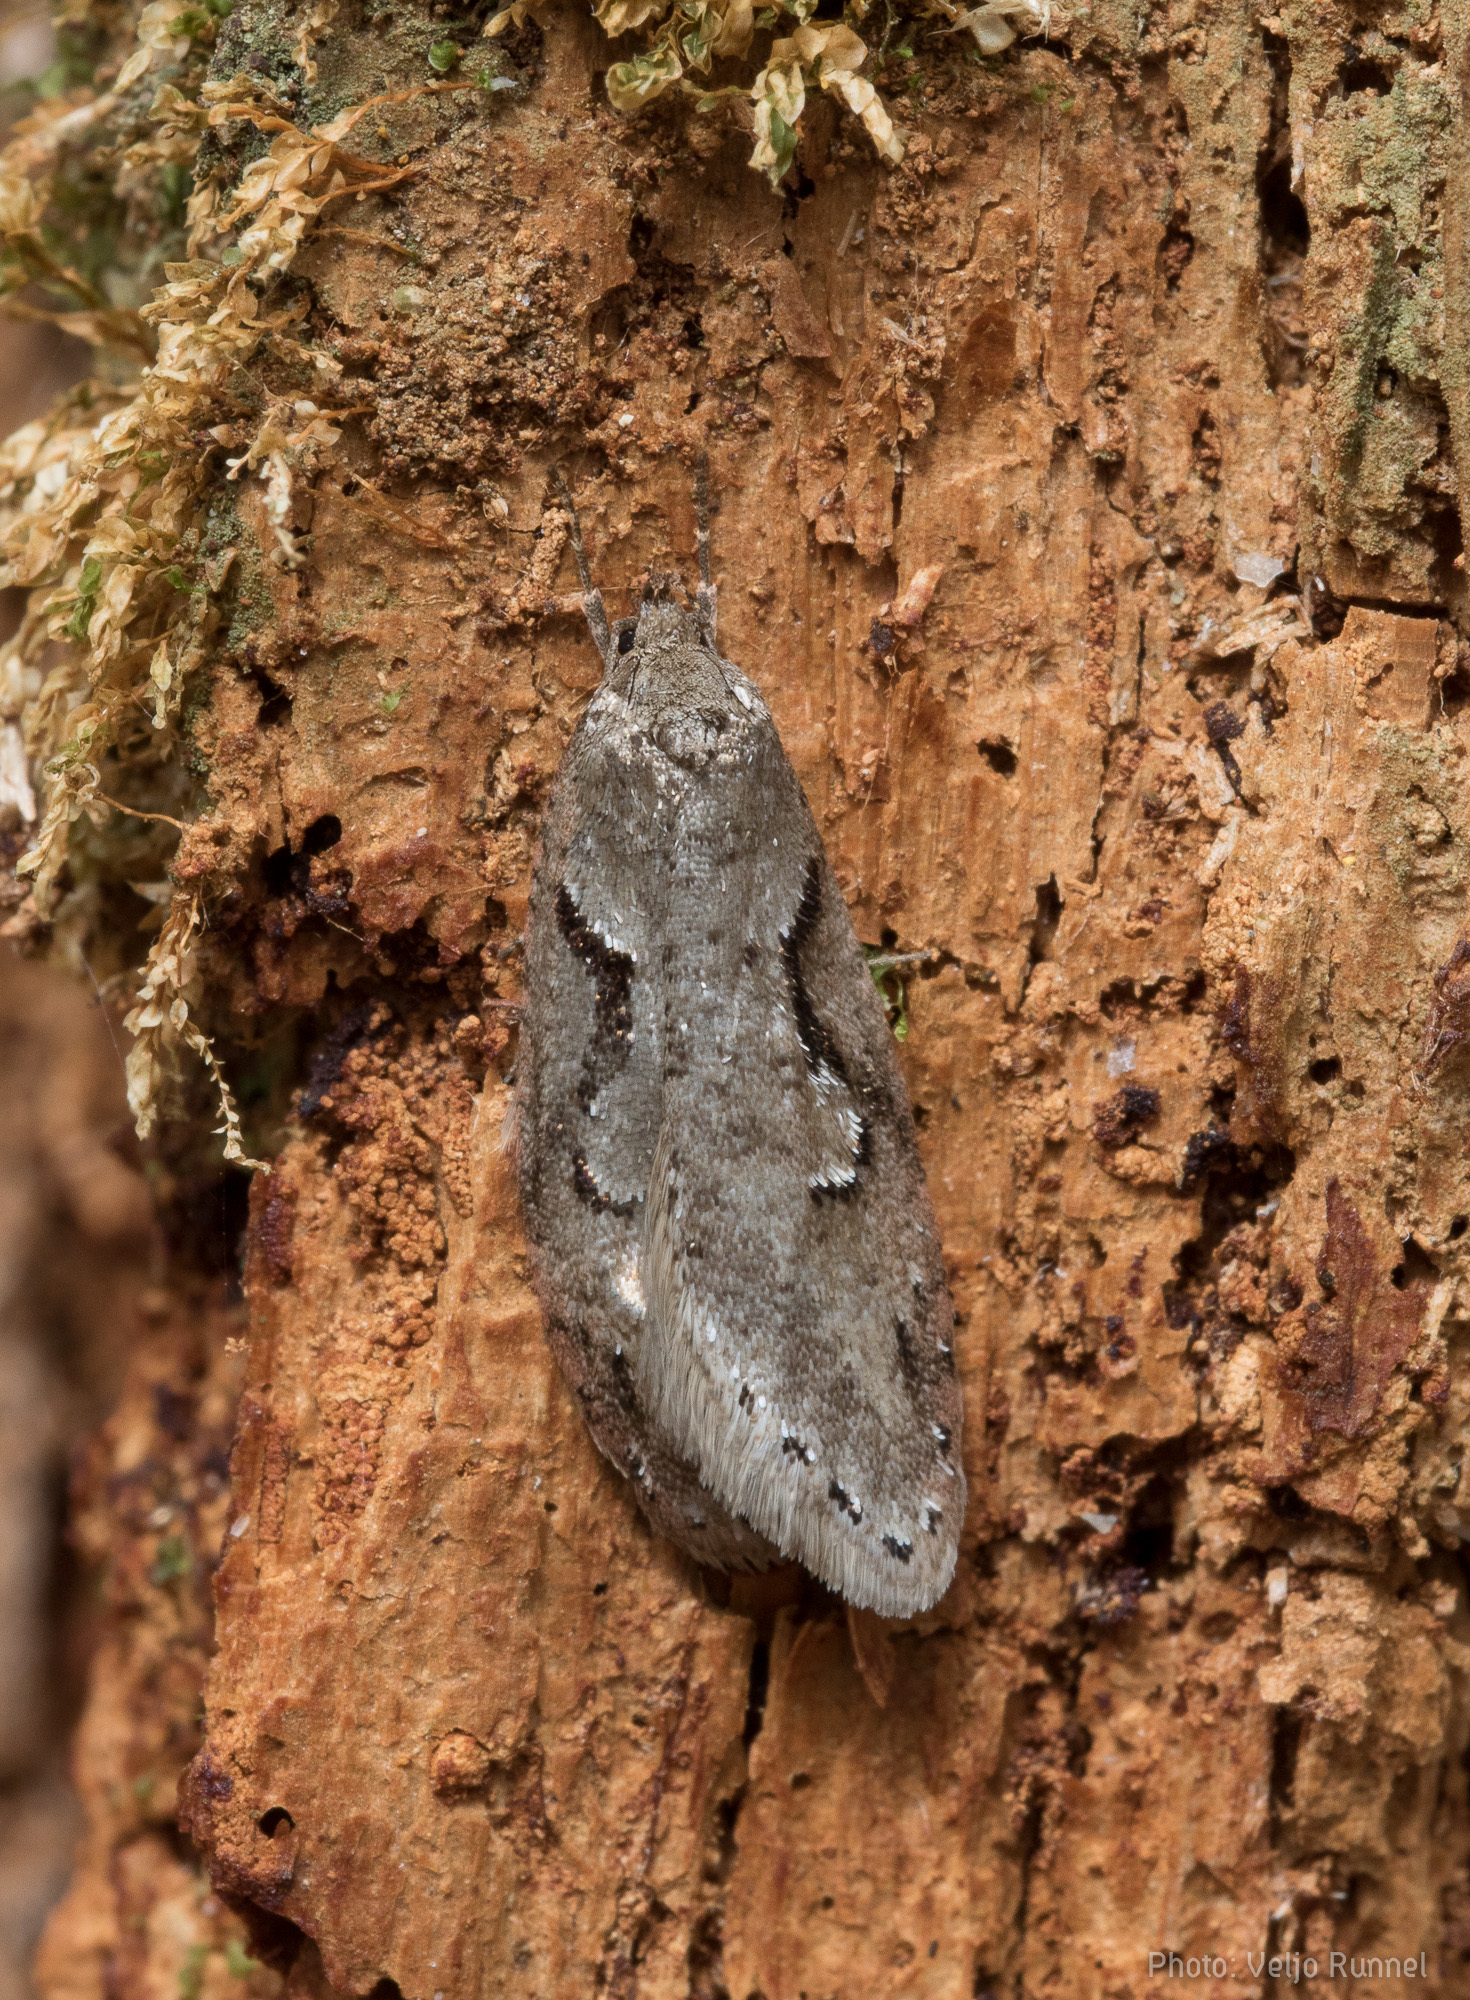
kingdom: Animalia
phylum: Arthropoda
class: Insecta
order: Lepidoptera
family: Depressariidae
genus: Semioscopis
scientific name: Semioscopis steinkellneriana
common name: Dawn flat-body
